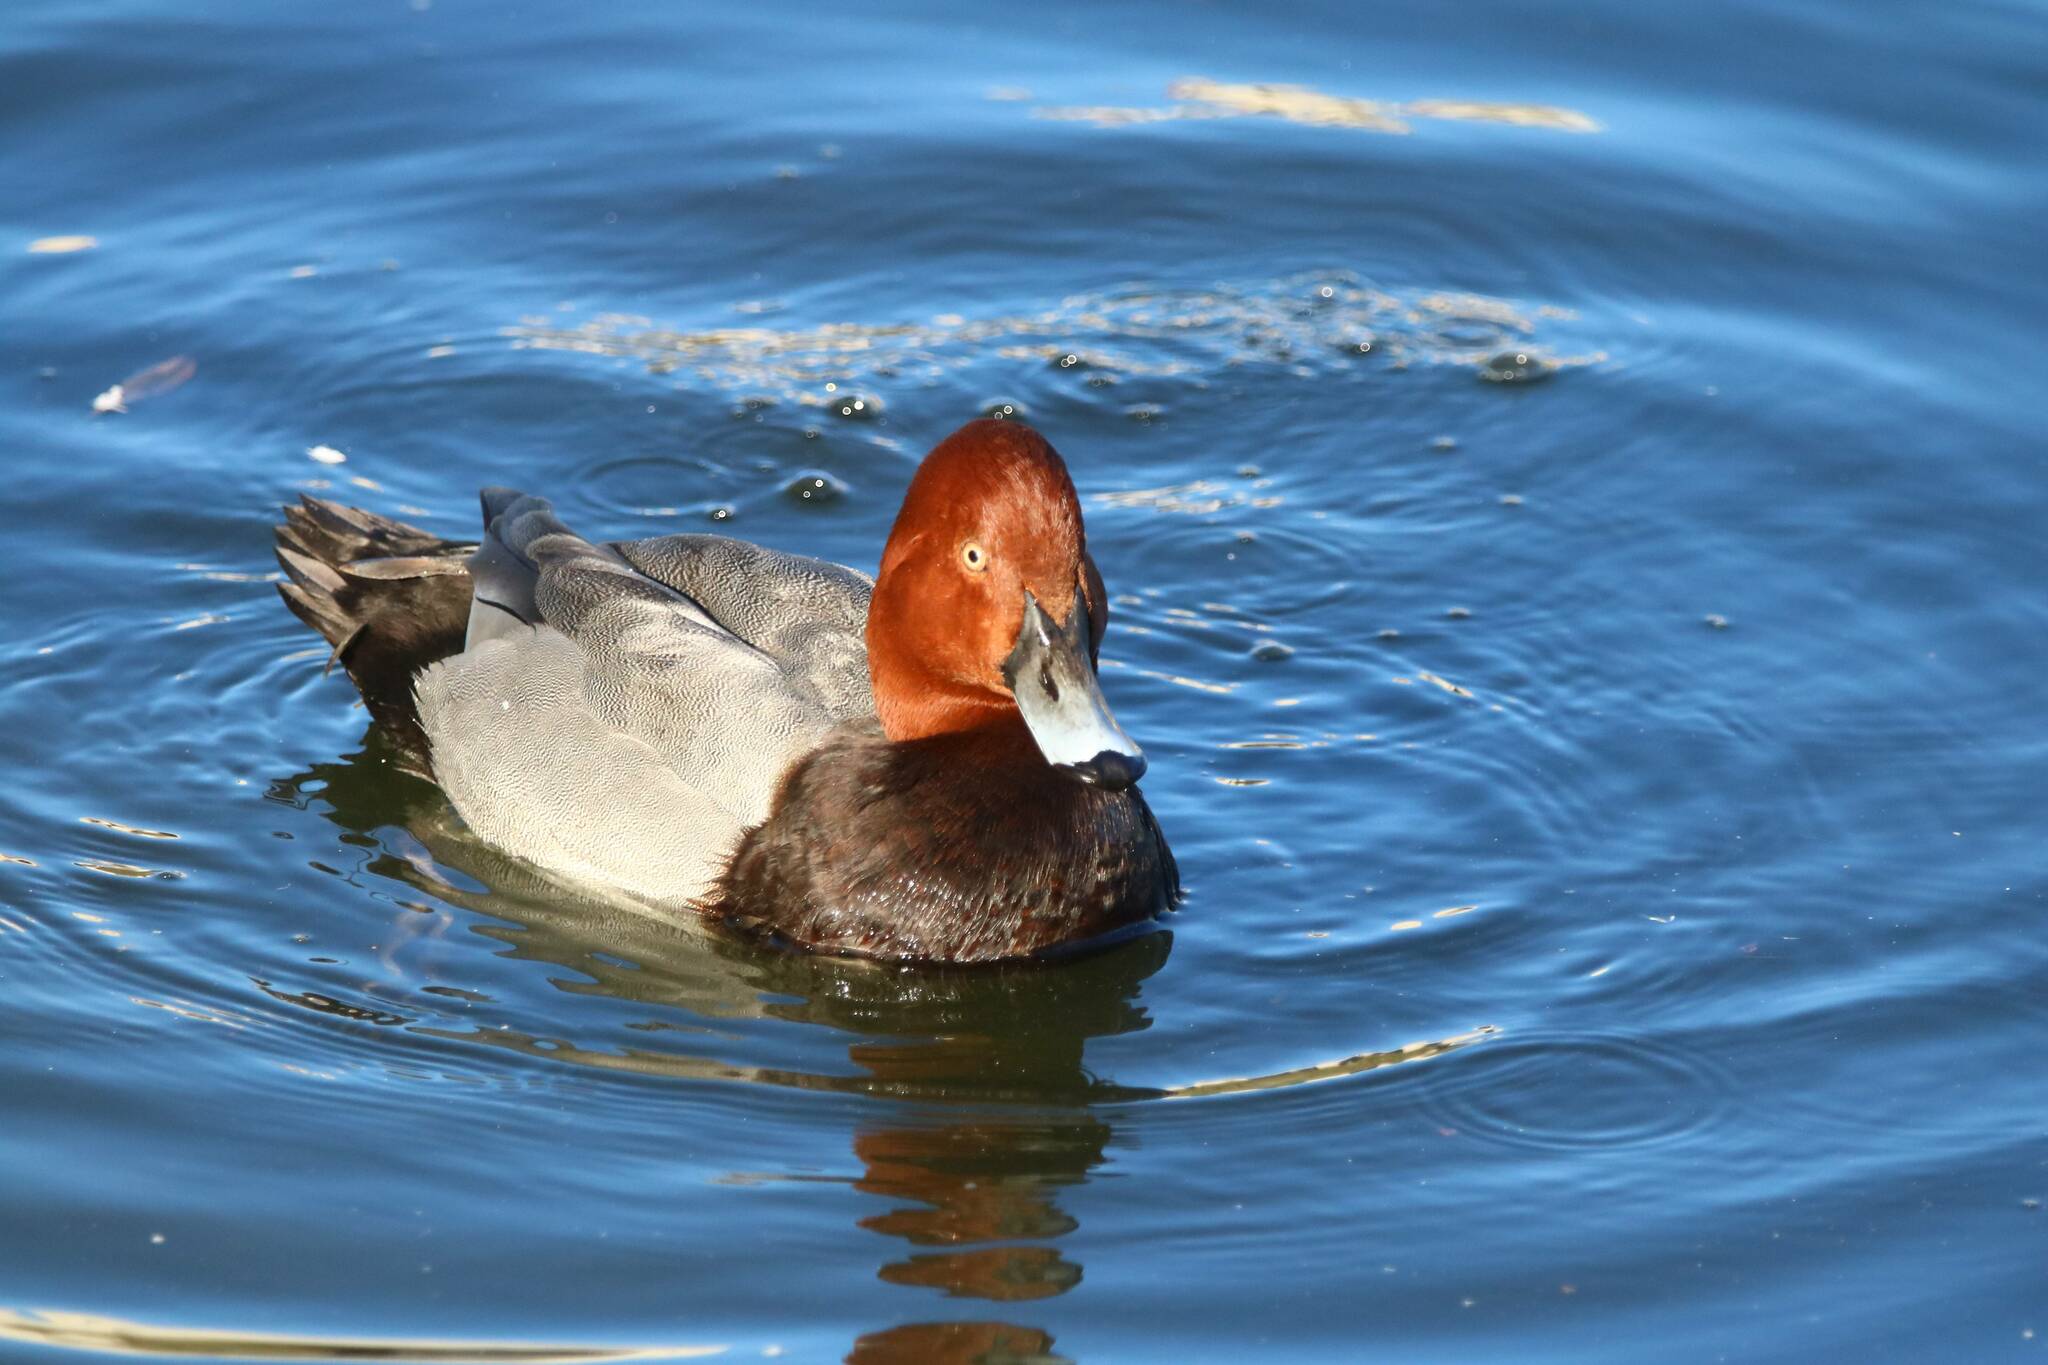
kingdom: Animalia
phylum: Chordata
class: Aves
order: Anseriformes
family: Anatidae
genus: Aythya
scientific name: Aythya ferina
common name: Common pochard
